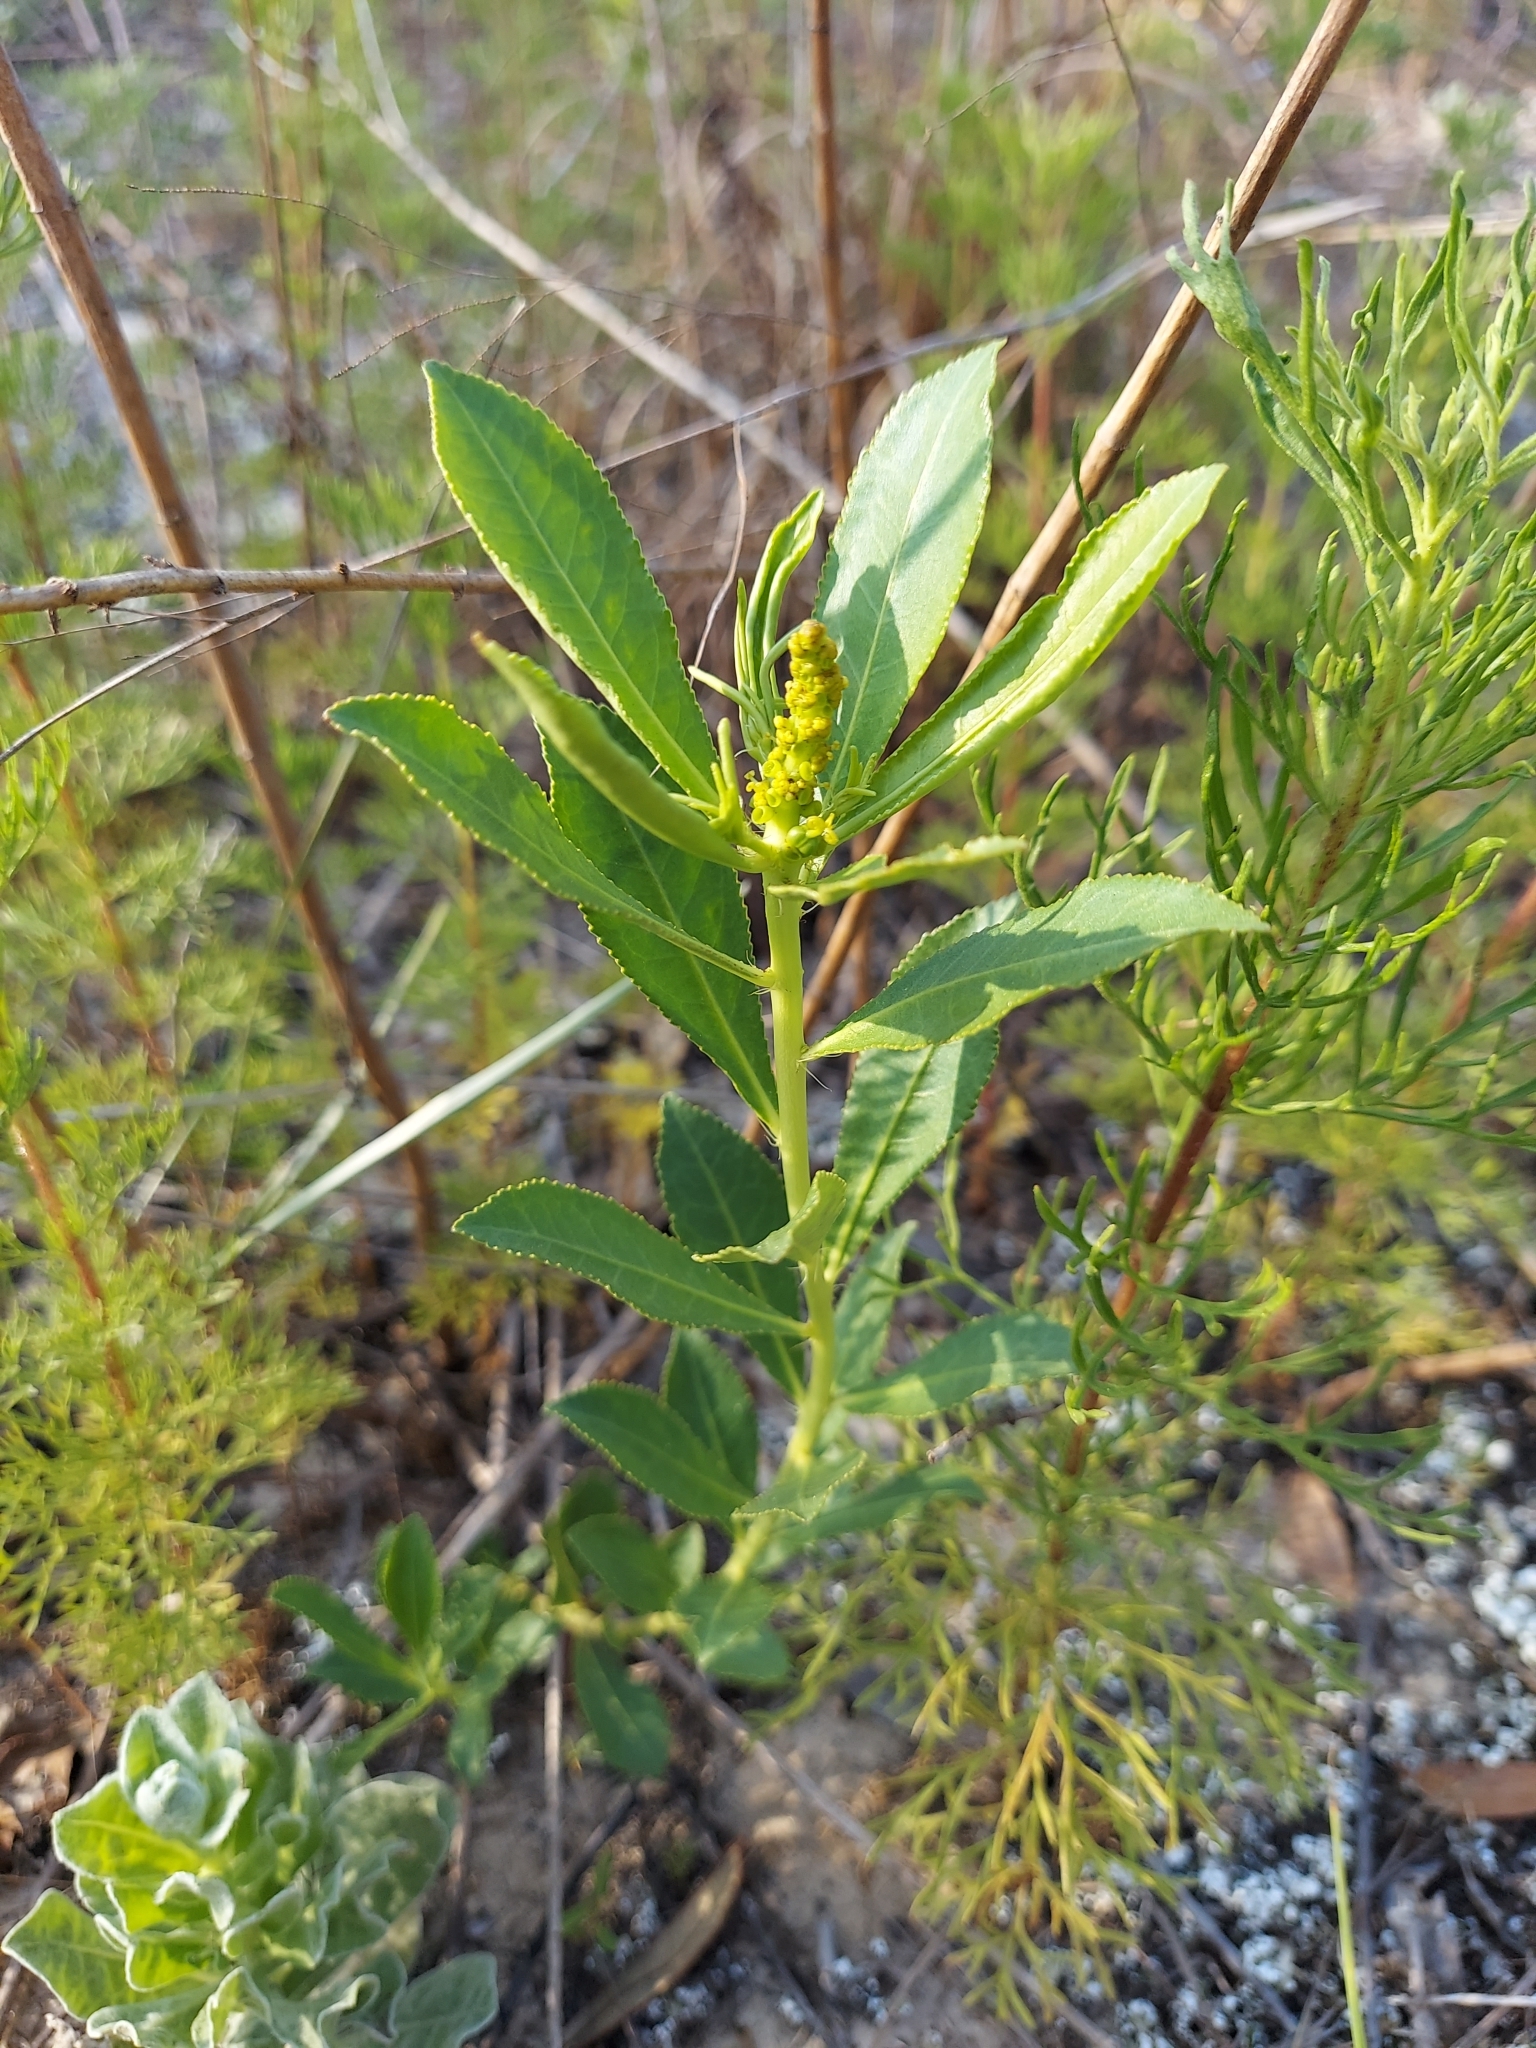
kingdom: Plantae
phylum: Tracheophyta
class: Magnoliopsida
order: Malpighiales
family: Euphorbiaceae
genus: Stillingia
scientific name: Stillingia sylvatica
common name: Queen's-delight
